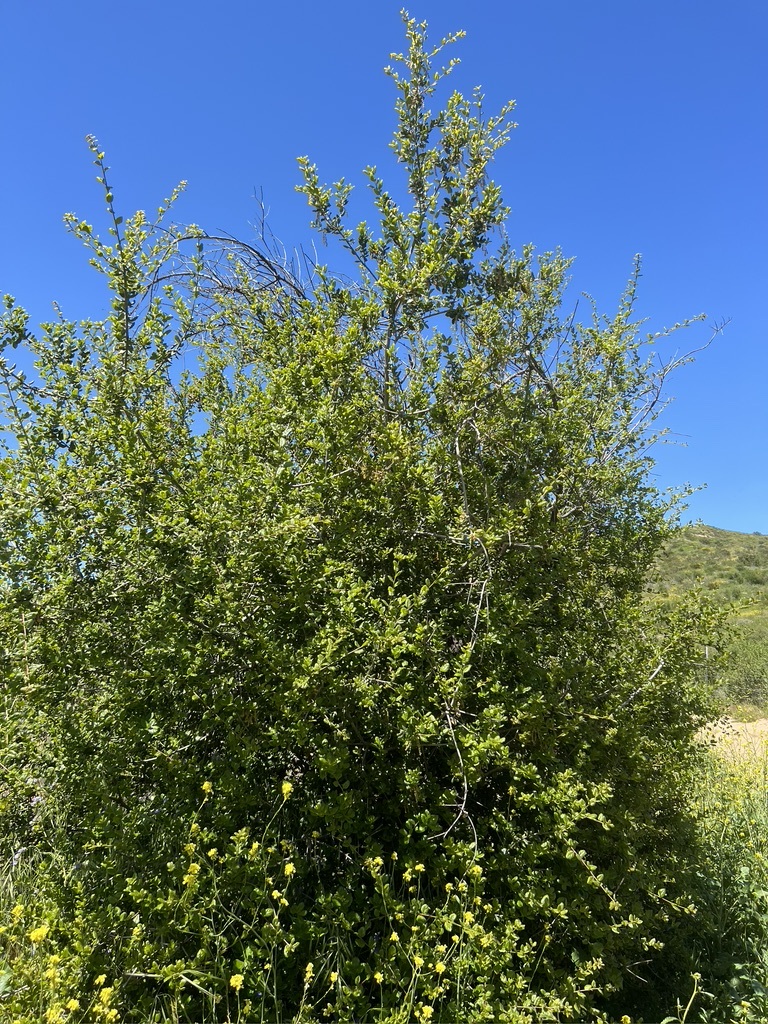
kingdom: Plantae
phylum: Tracheophyta
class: Magnoliopsida
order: Fagales
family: Fagaceae
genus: Quercus
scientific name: Quercus agrifolia
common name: California live oak
